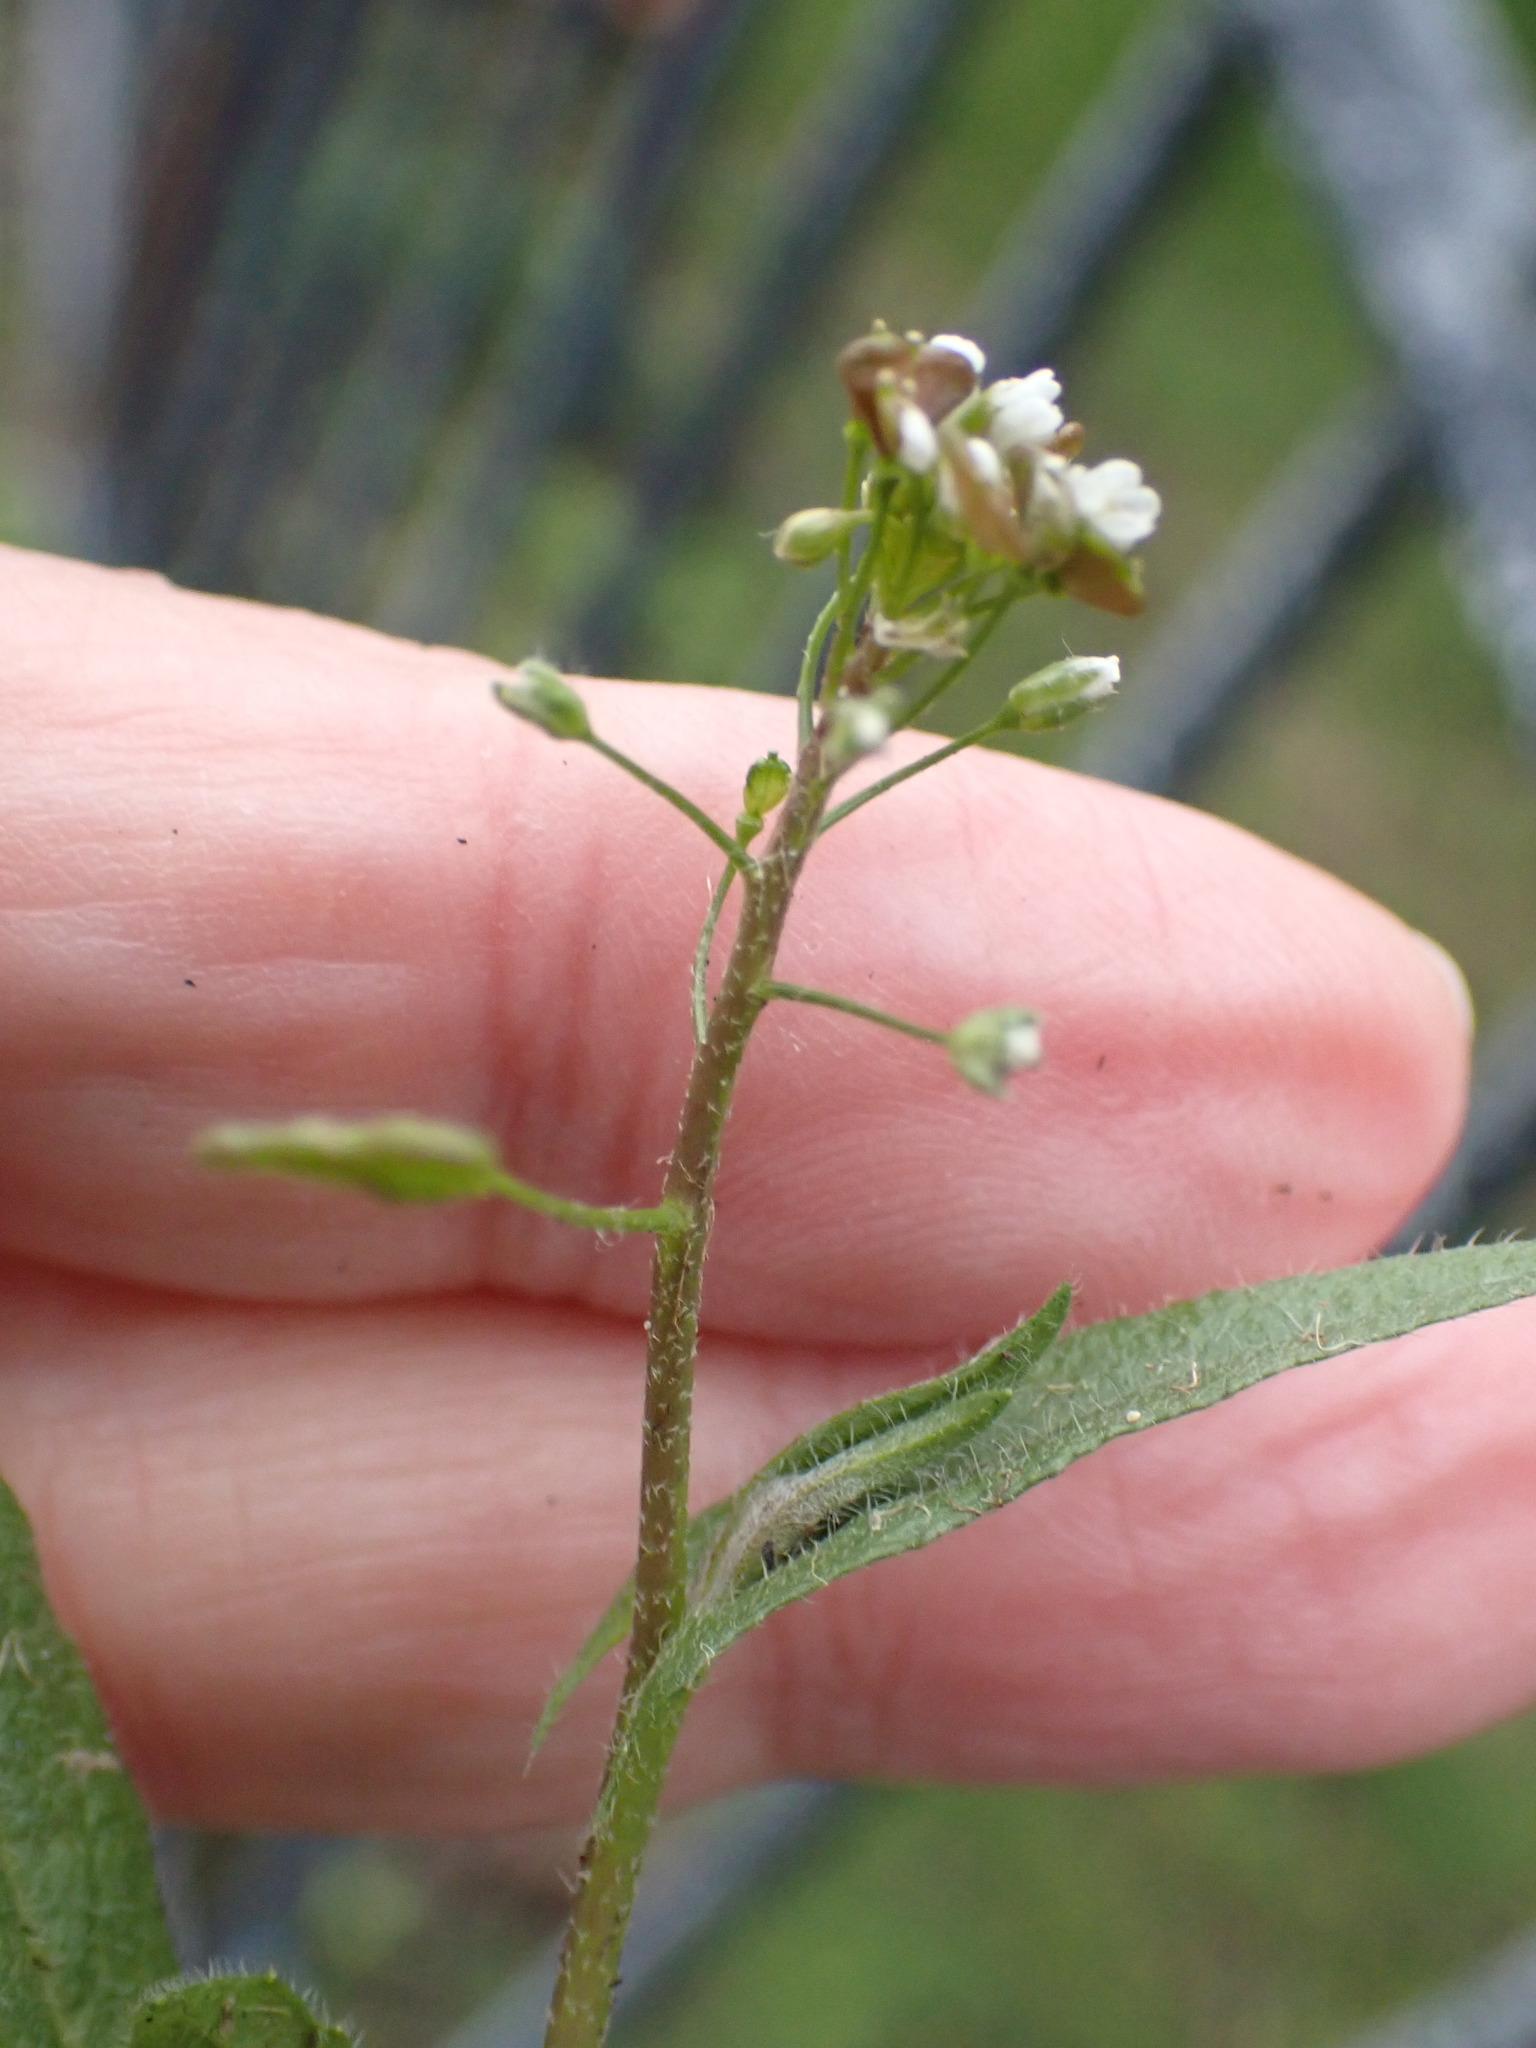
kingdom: Plantae
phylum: Tracheophyta
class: Magnoliopsida
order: Brassicales
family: Brassicaceae
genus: Capsella
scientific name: Capsella bursa-pastoris
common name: Shepherd's purse
